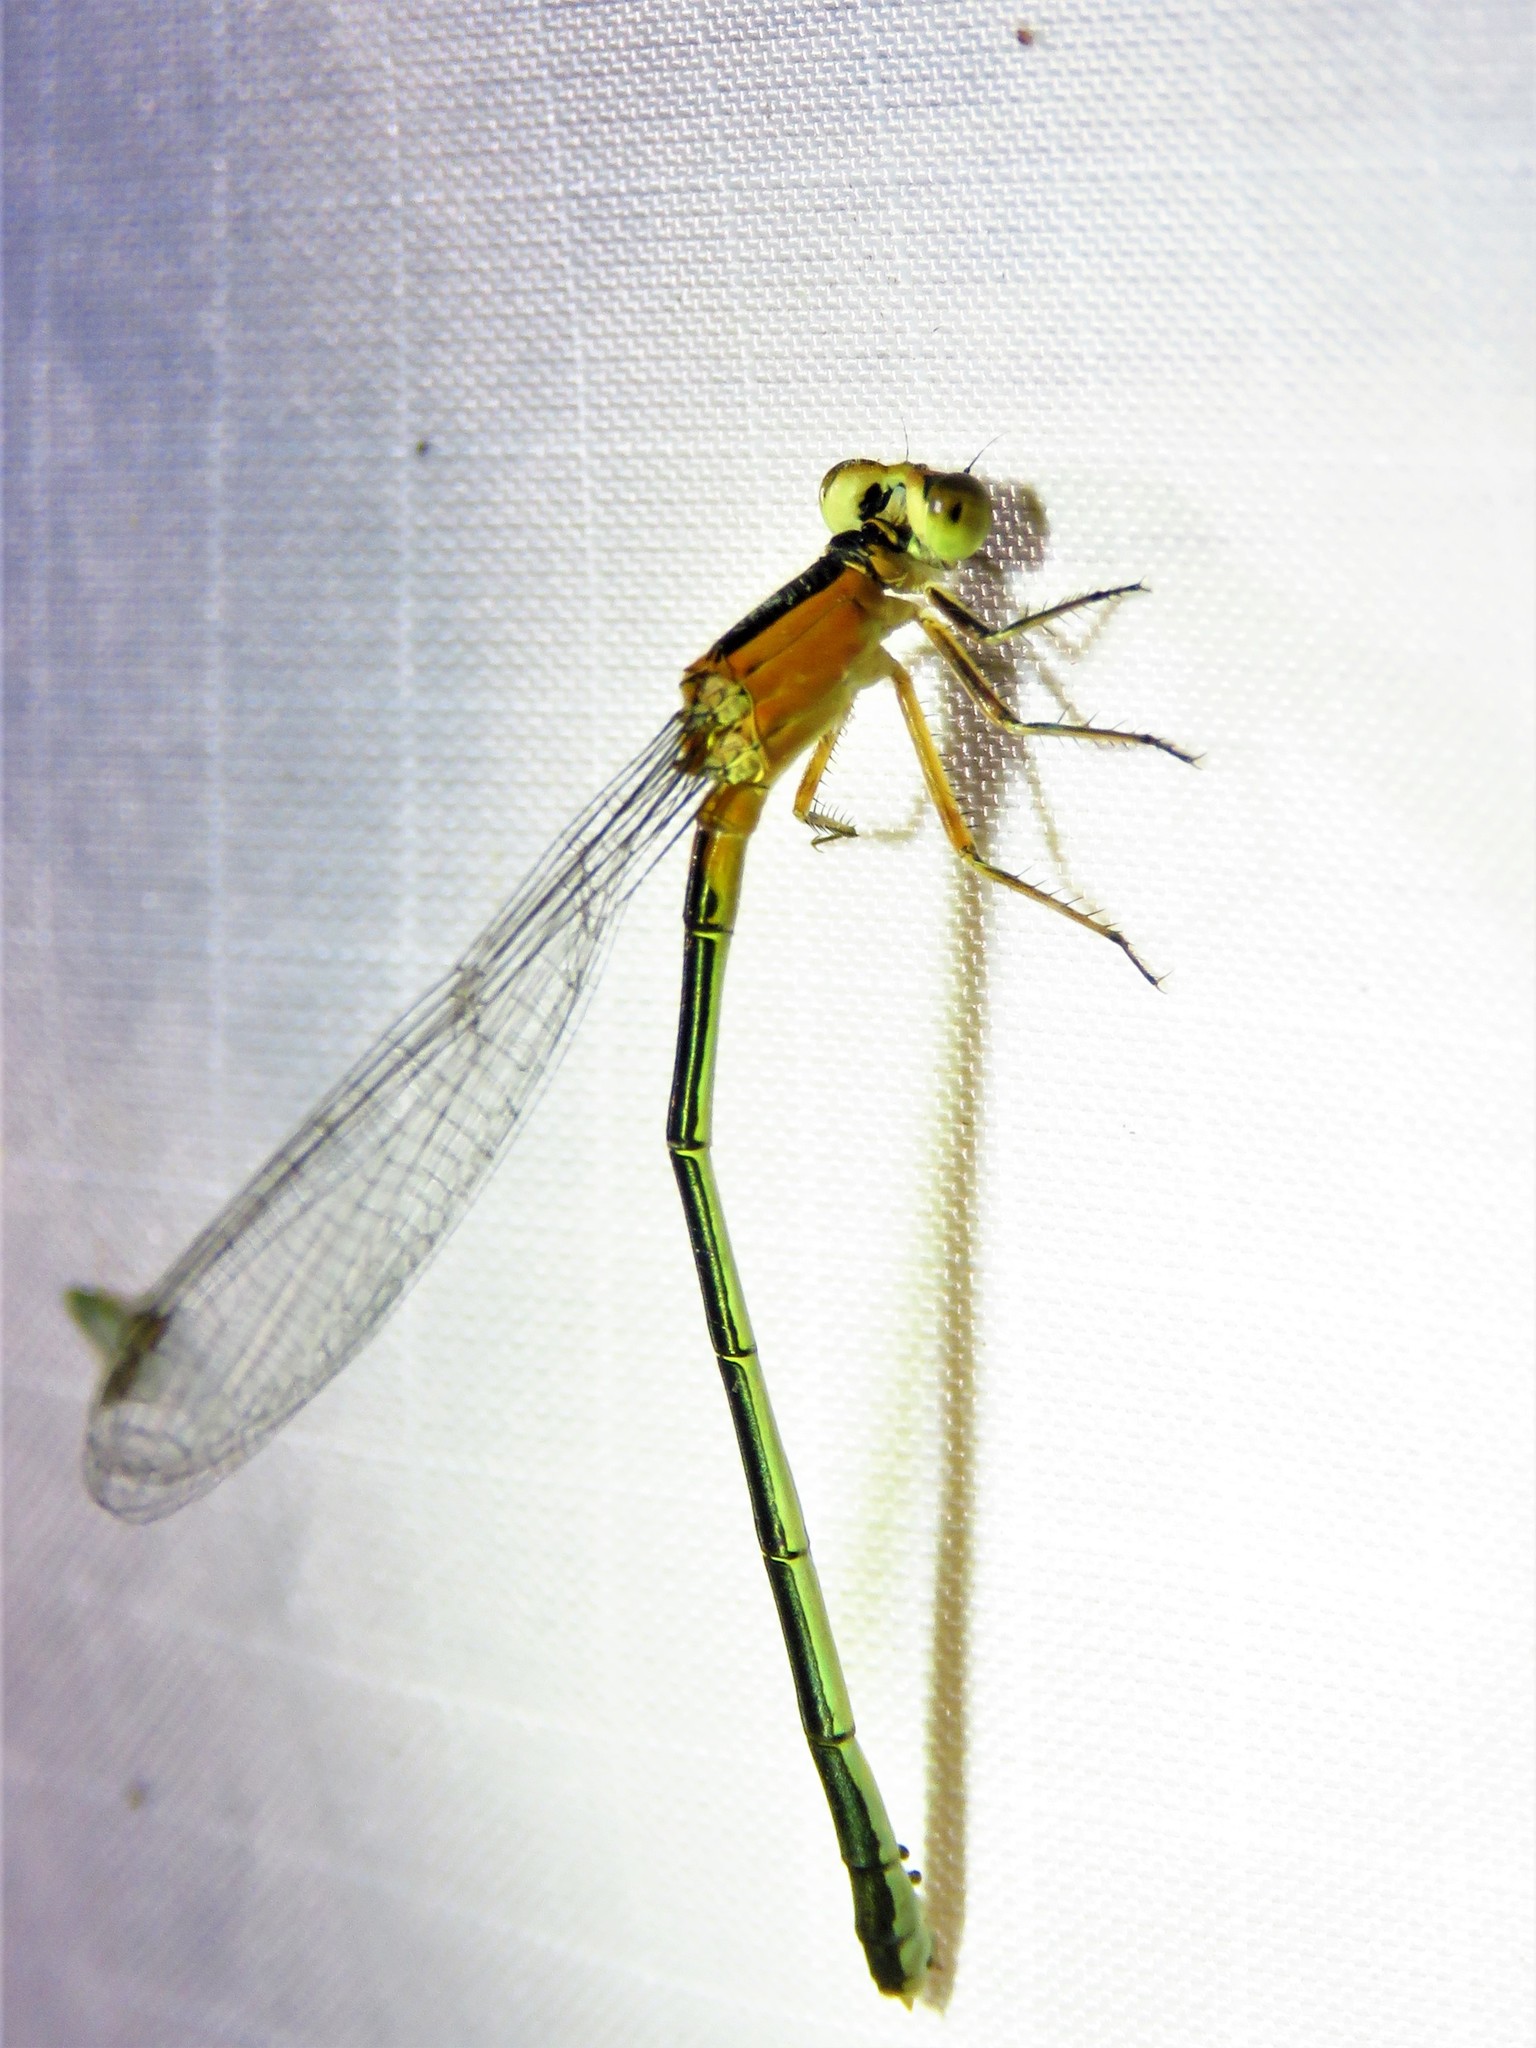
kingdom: Animalia
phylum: Arthropoda
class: Insecta
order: Odonata
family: Coenagrionidae
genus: Ischnura
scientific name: Ischnura ramburii
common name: Rambur's forktail
